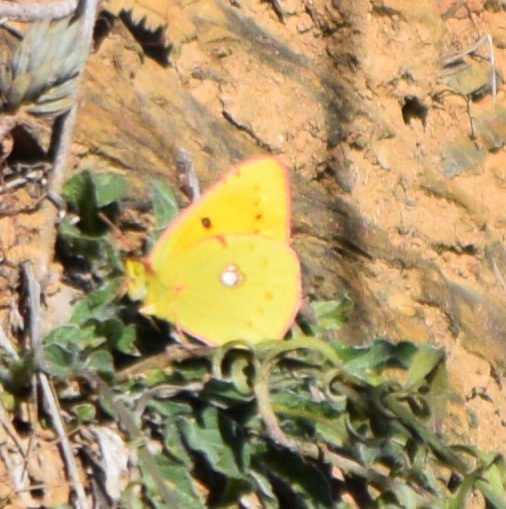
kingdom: Animalia
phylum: Arthropoda
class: Insecta
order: Lepidoptera
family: Pieridae
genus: Colias
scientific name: Colias croceus
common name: Clouded yellow
